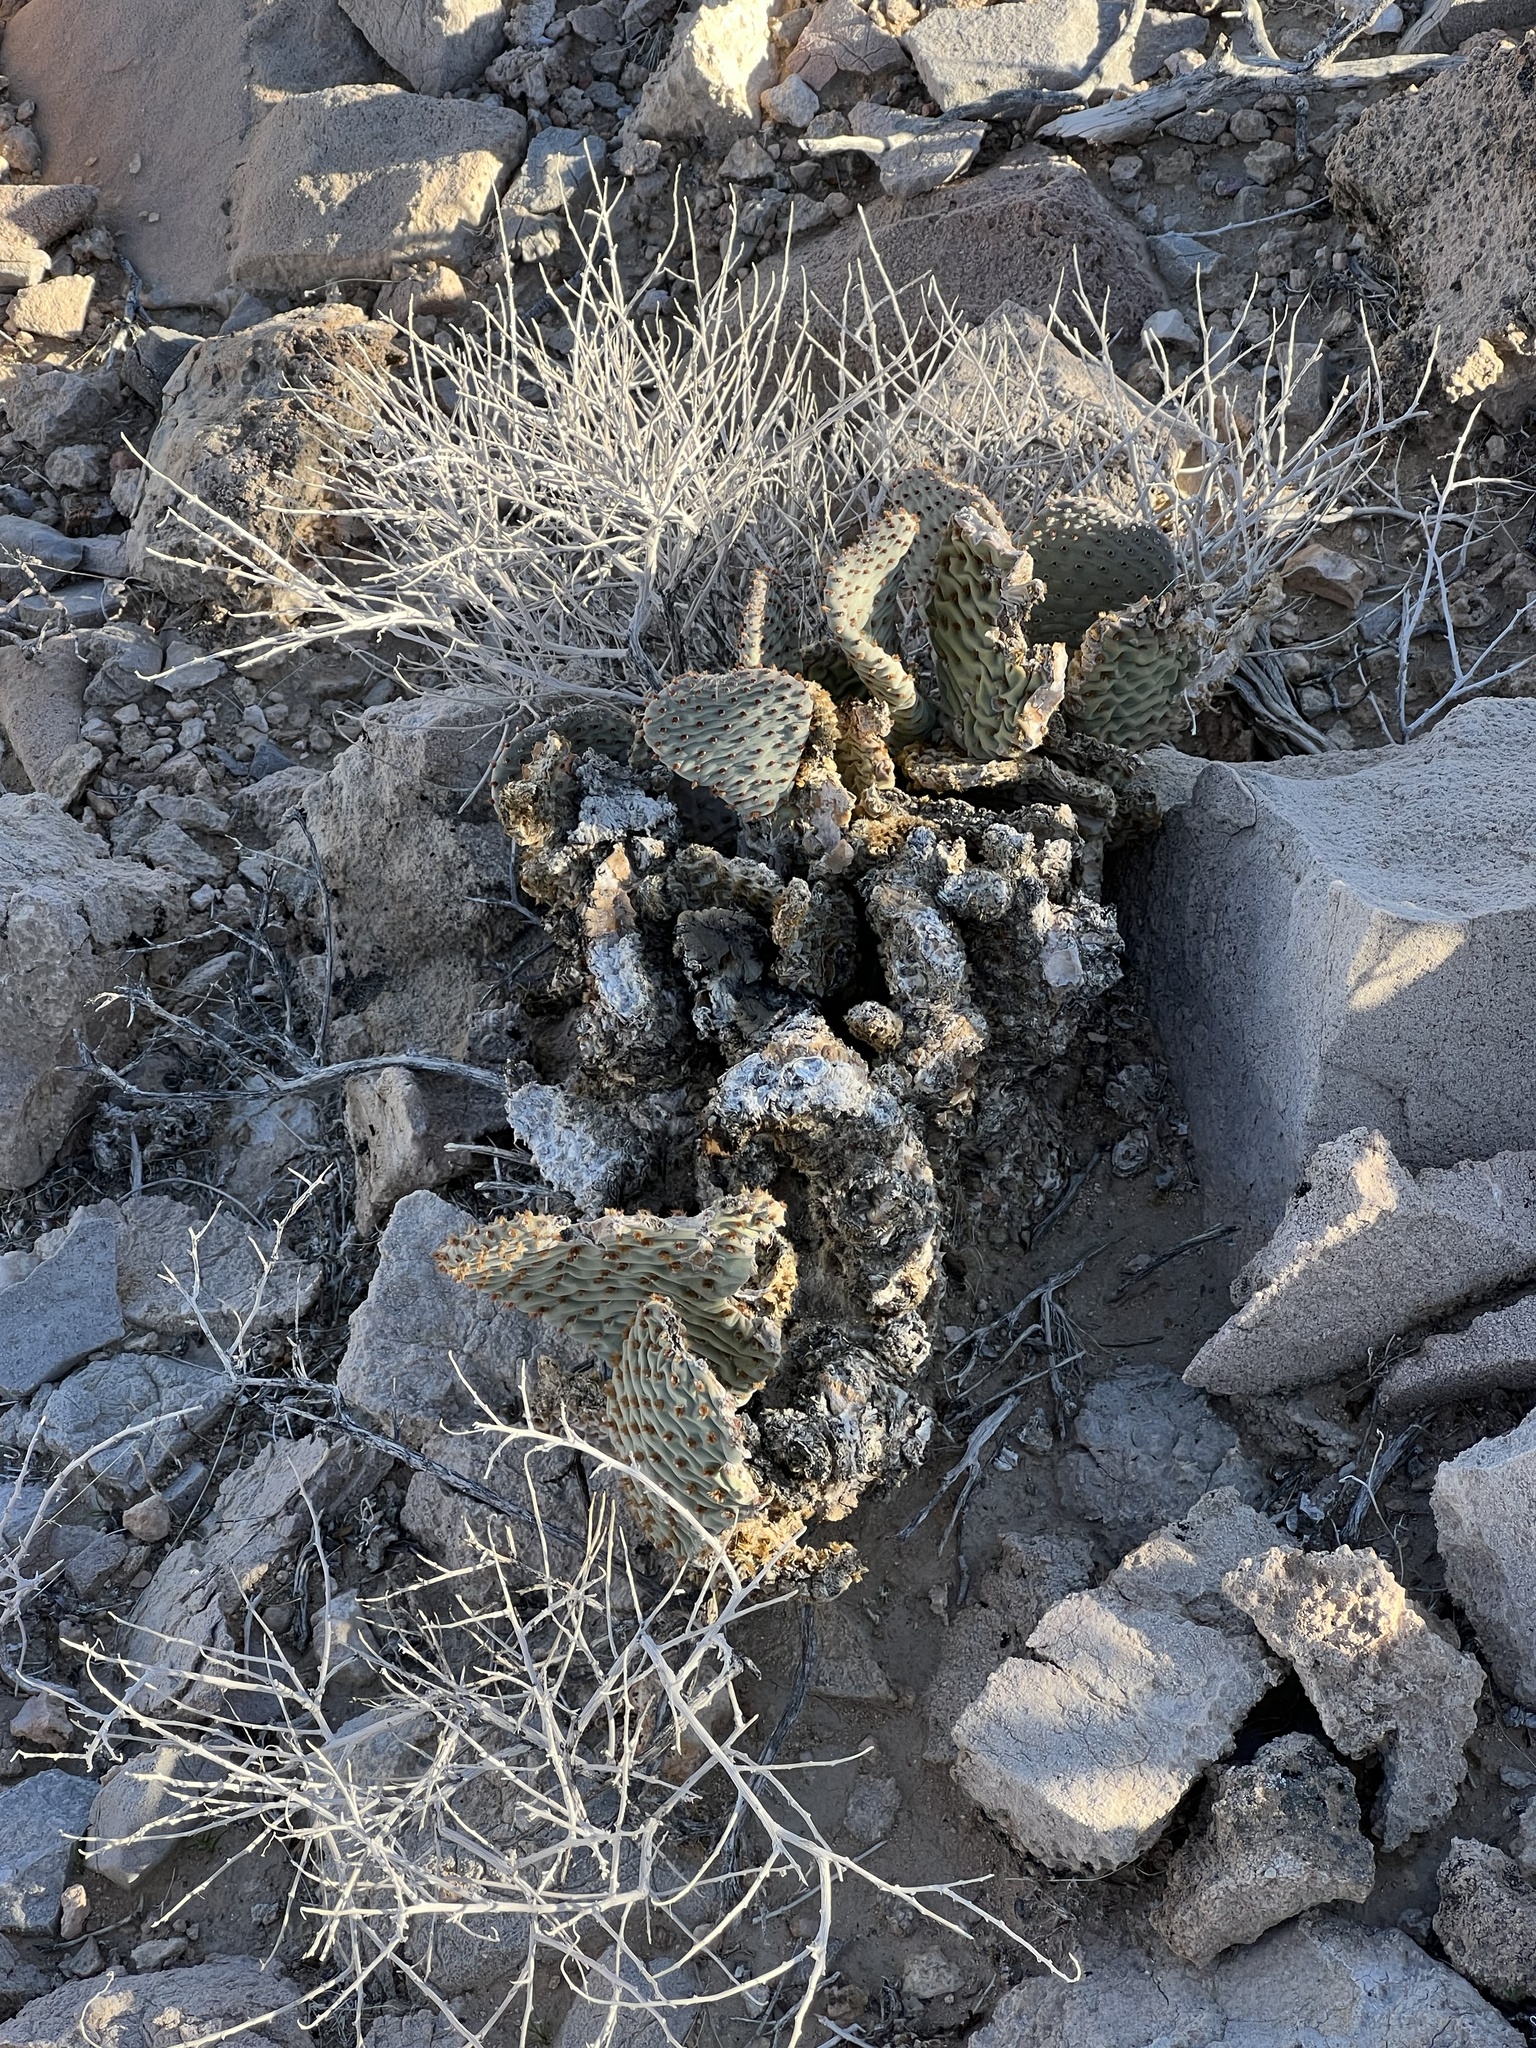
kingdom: Plantae
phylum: Tracheophyta
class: Magnoliopsida
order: Caryophyllales
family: Cactaceae
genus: Opuntia
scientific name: Opuntia basilaris
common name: Beavertail prickly-pear
